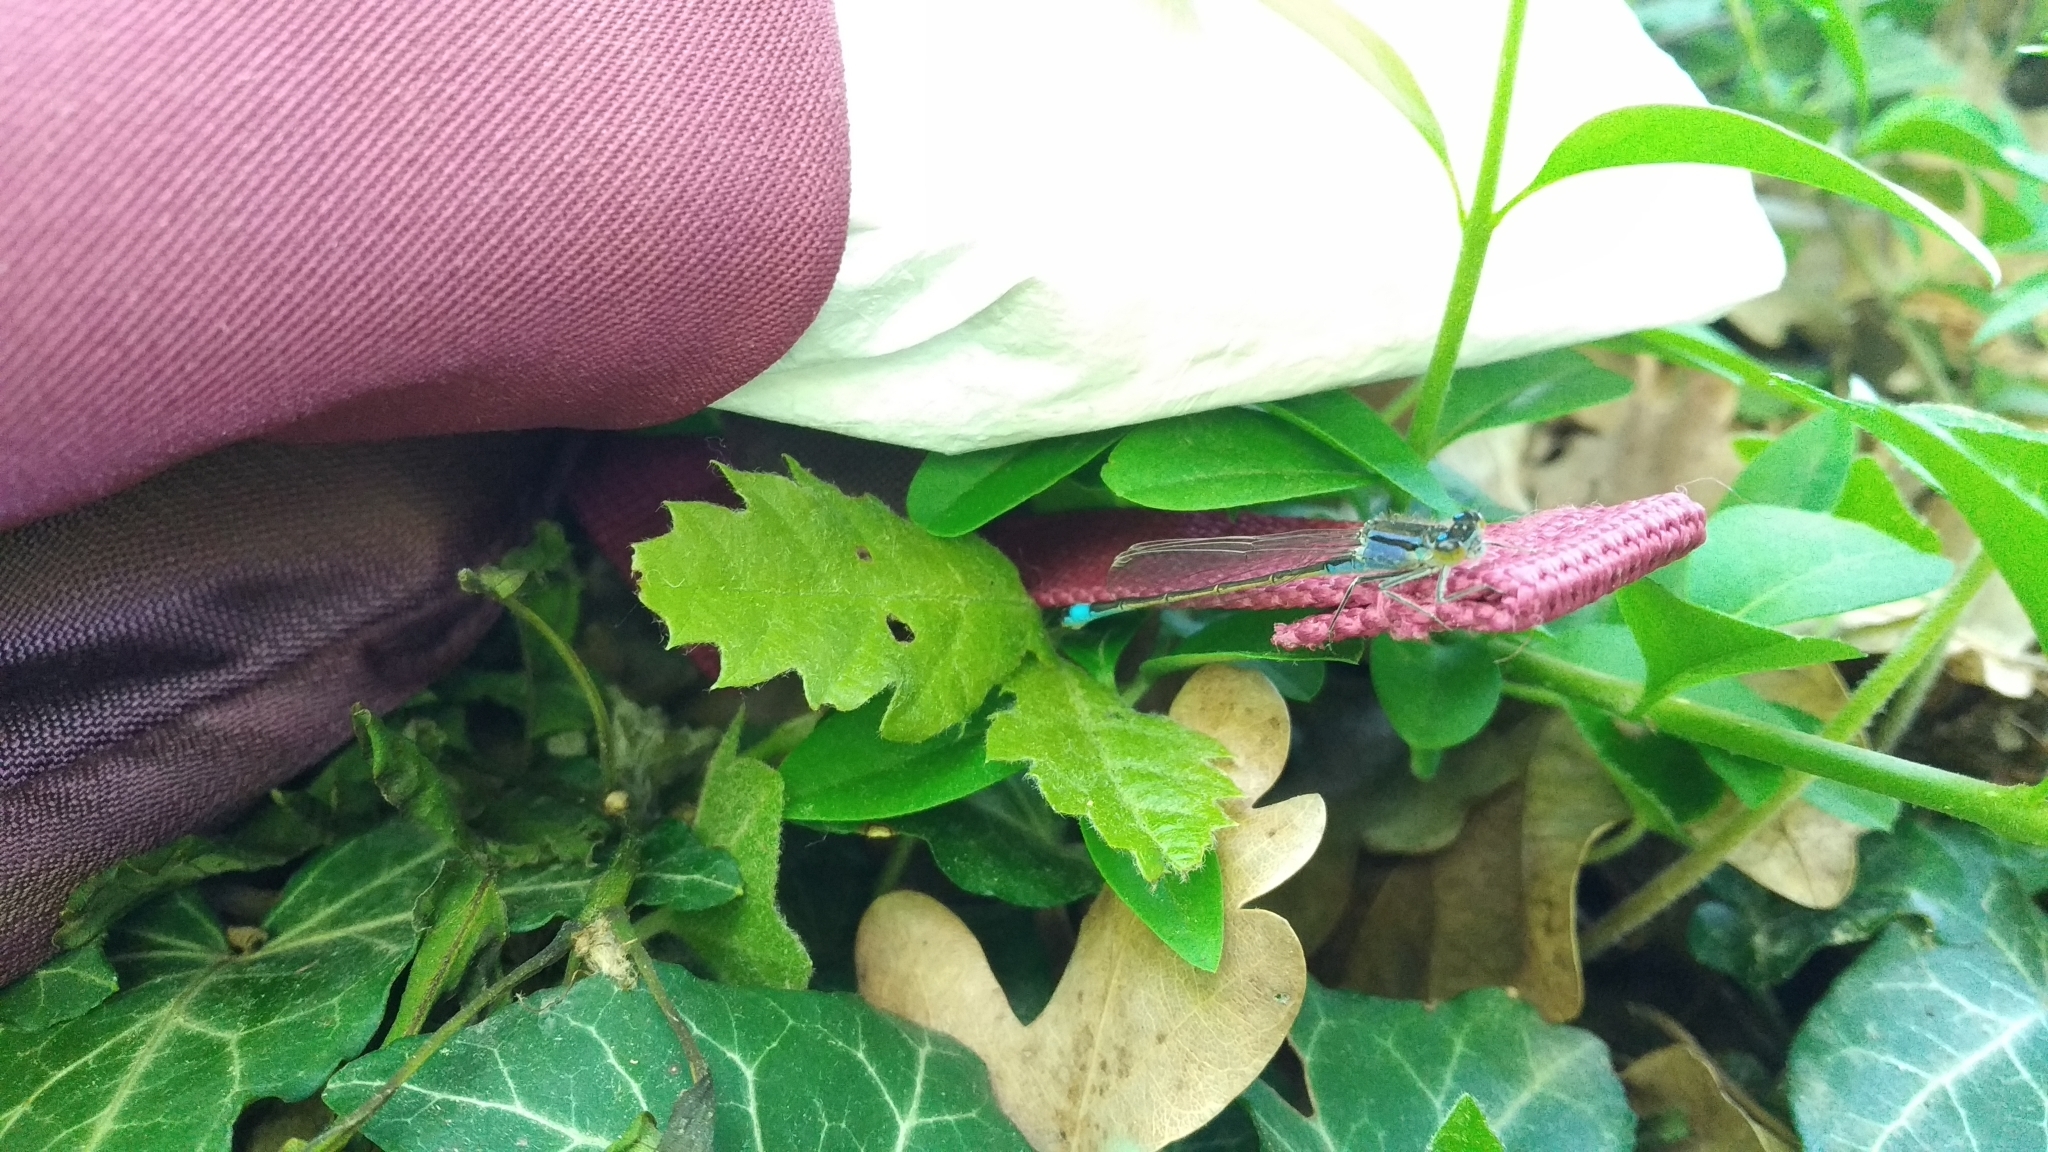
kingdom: Animalia
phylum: Arthropoda
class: Insecta
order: Odonata
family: Coenagrionidae
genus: Ischnura
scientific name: Ischnura elegans
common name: Blue-tailed damselfly
